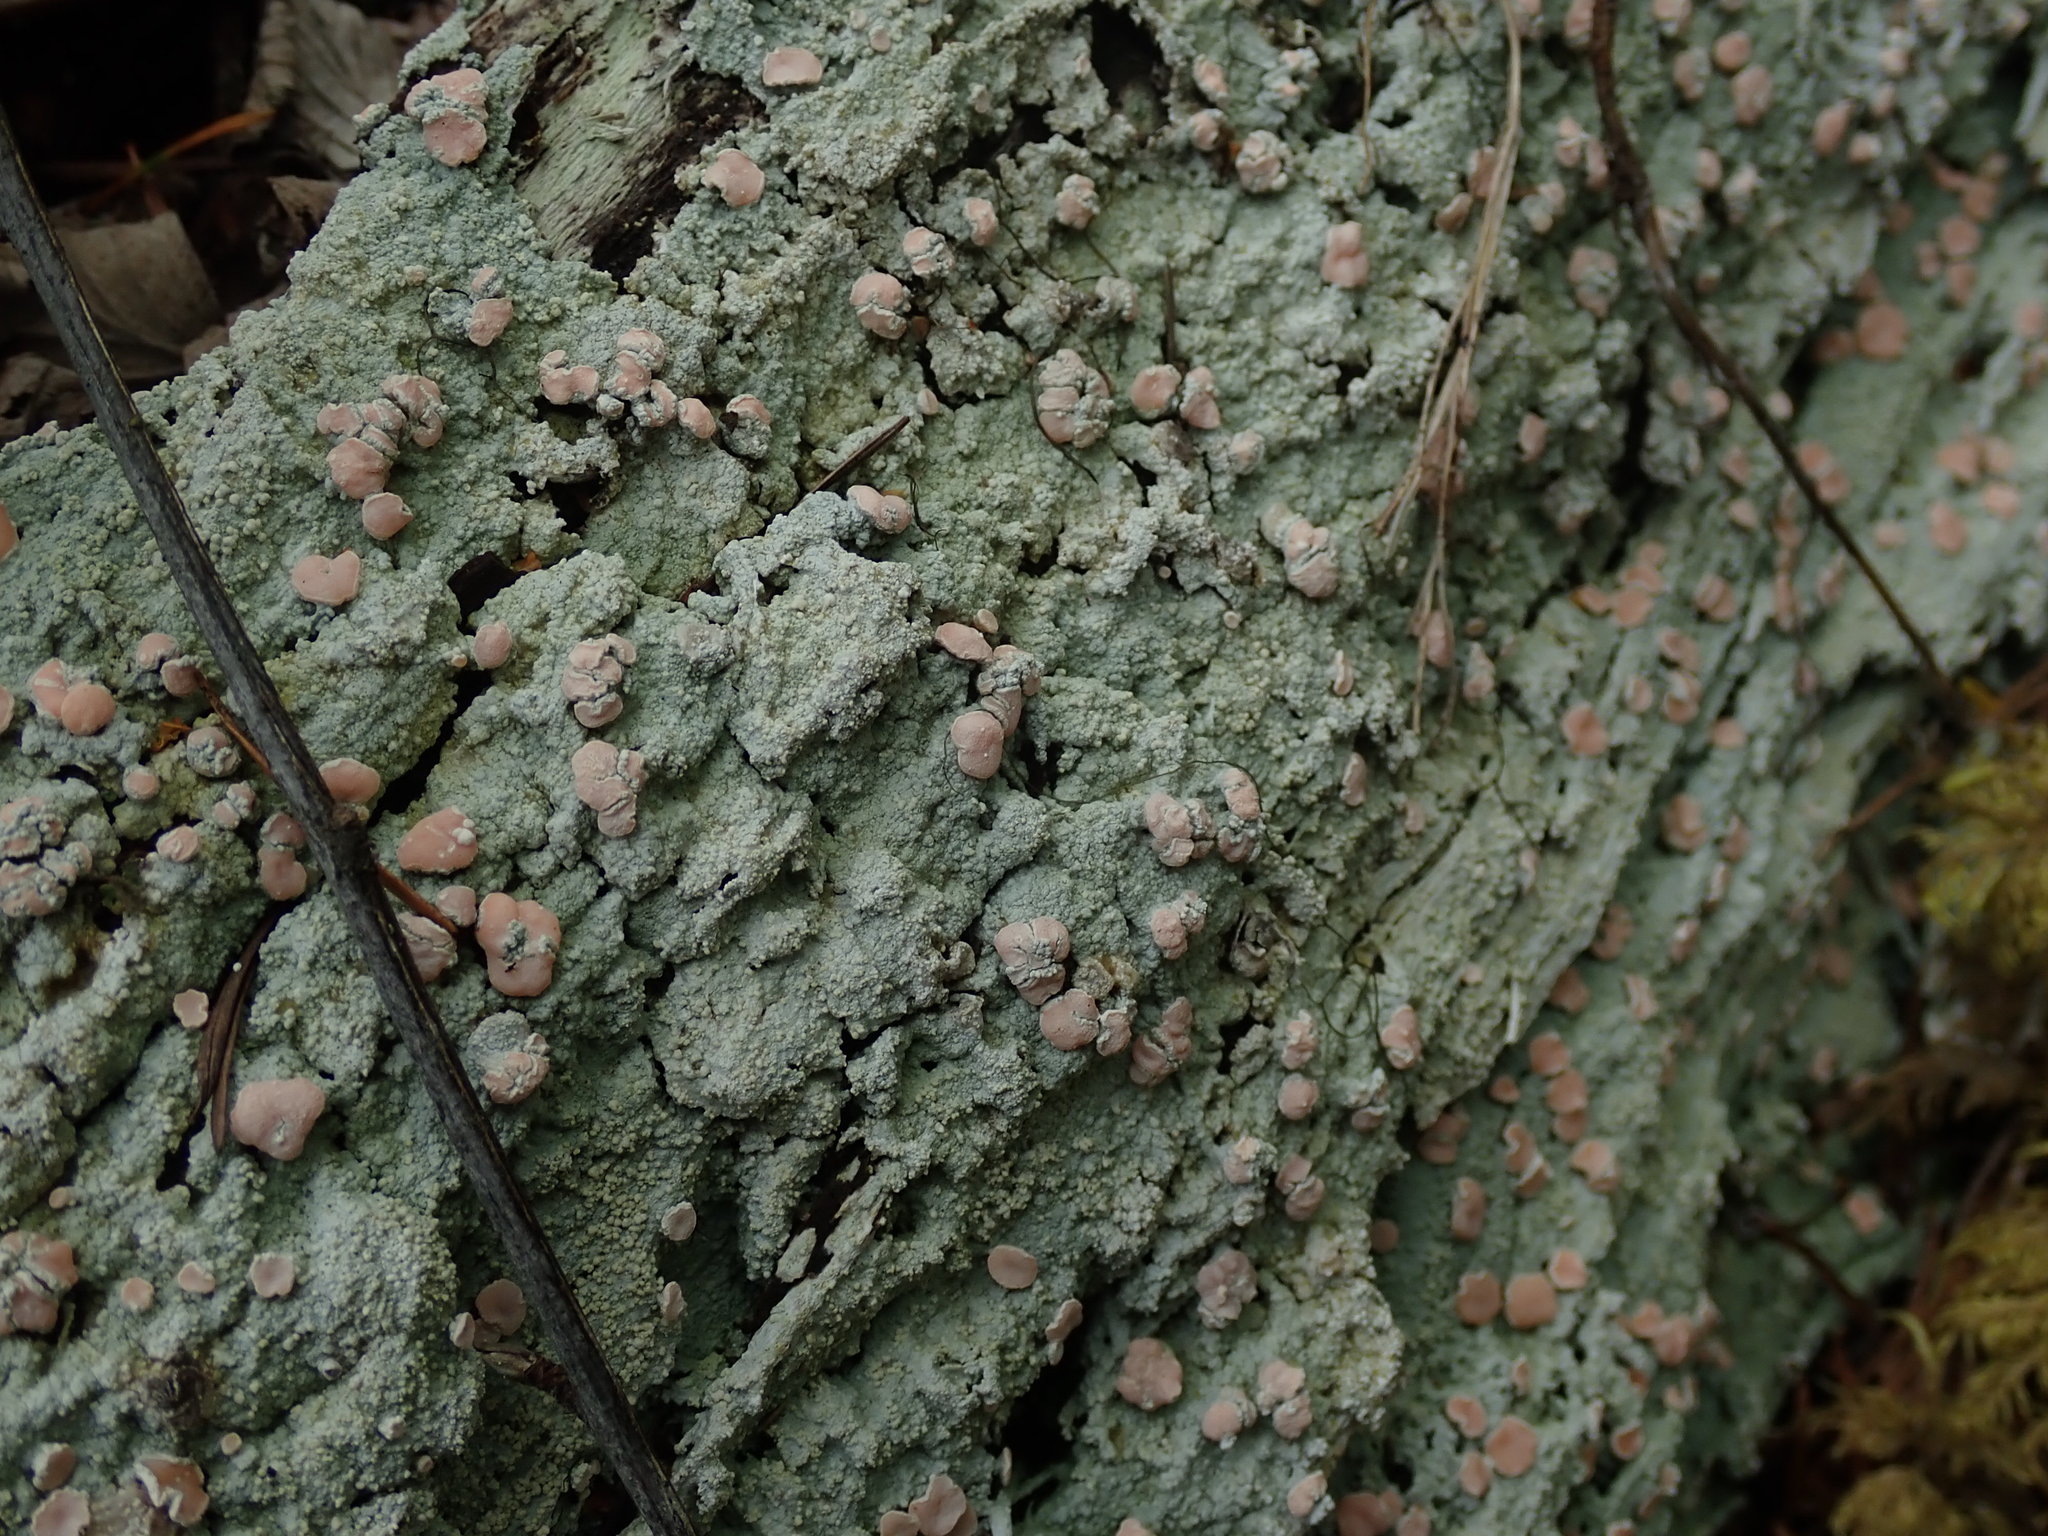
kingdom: Fungi
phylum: Ascomycota
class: Lecanoromycetes
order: Pertusariales
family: Icmadophilaceae
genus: Icmadophila
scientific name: Icmadophila ericetorum
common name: Candy lichen
